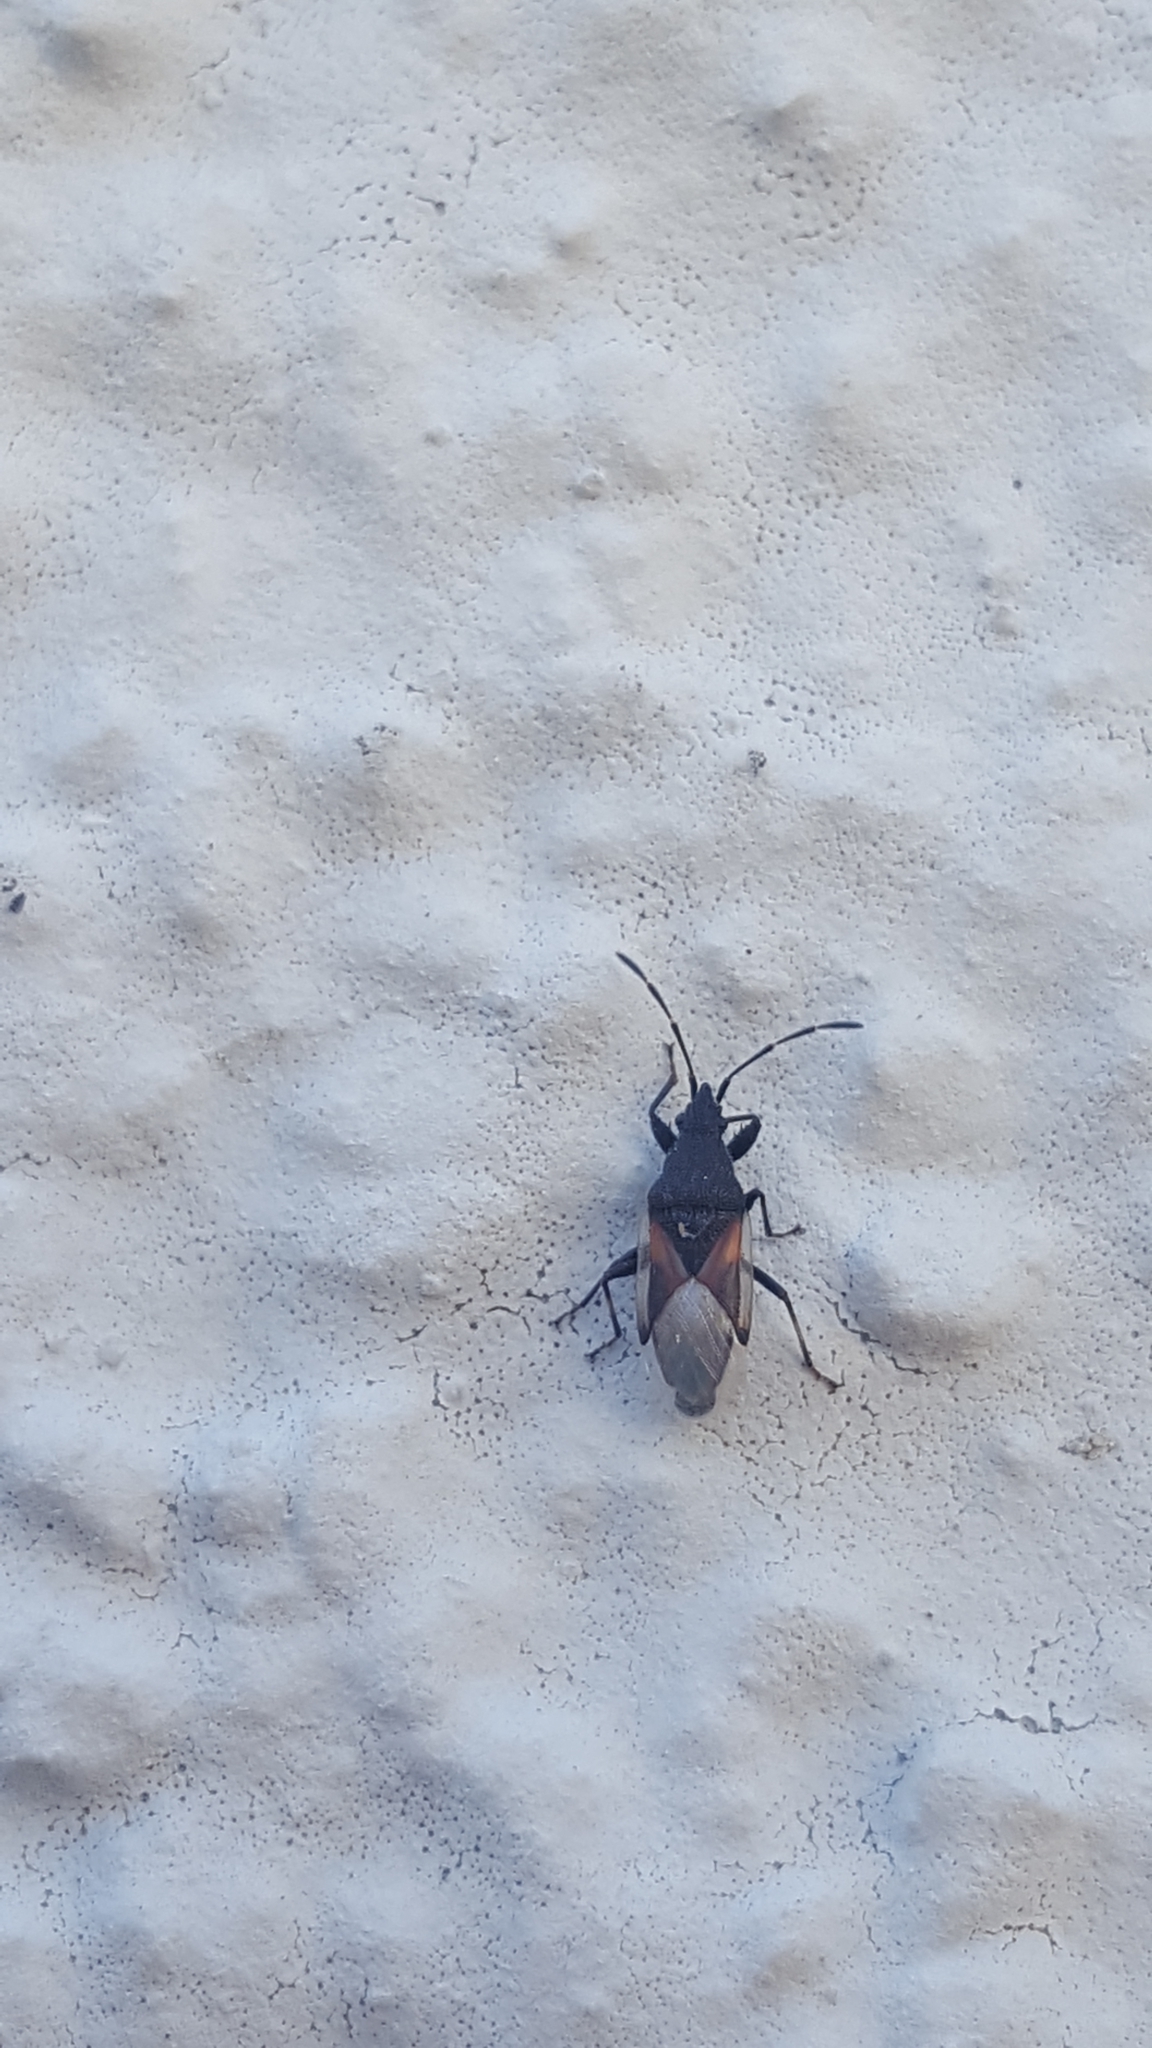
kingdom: Animalia
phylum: Arthropoda
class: Insecta
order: Hemiptera
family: Oxycarenidae
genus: Oxycarenus
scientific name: Oxycarenus lavaterae
